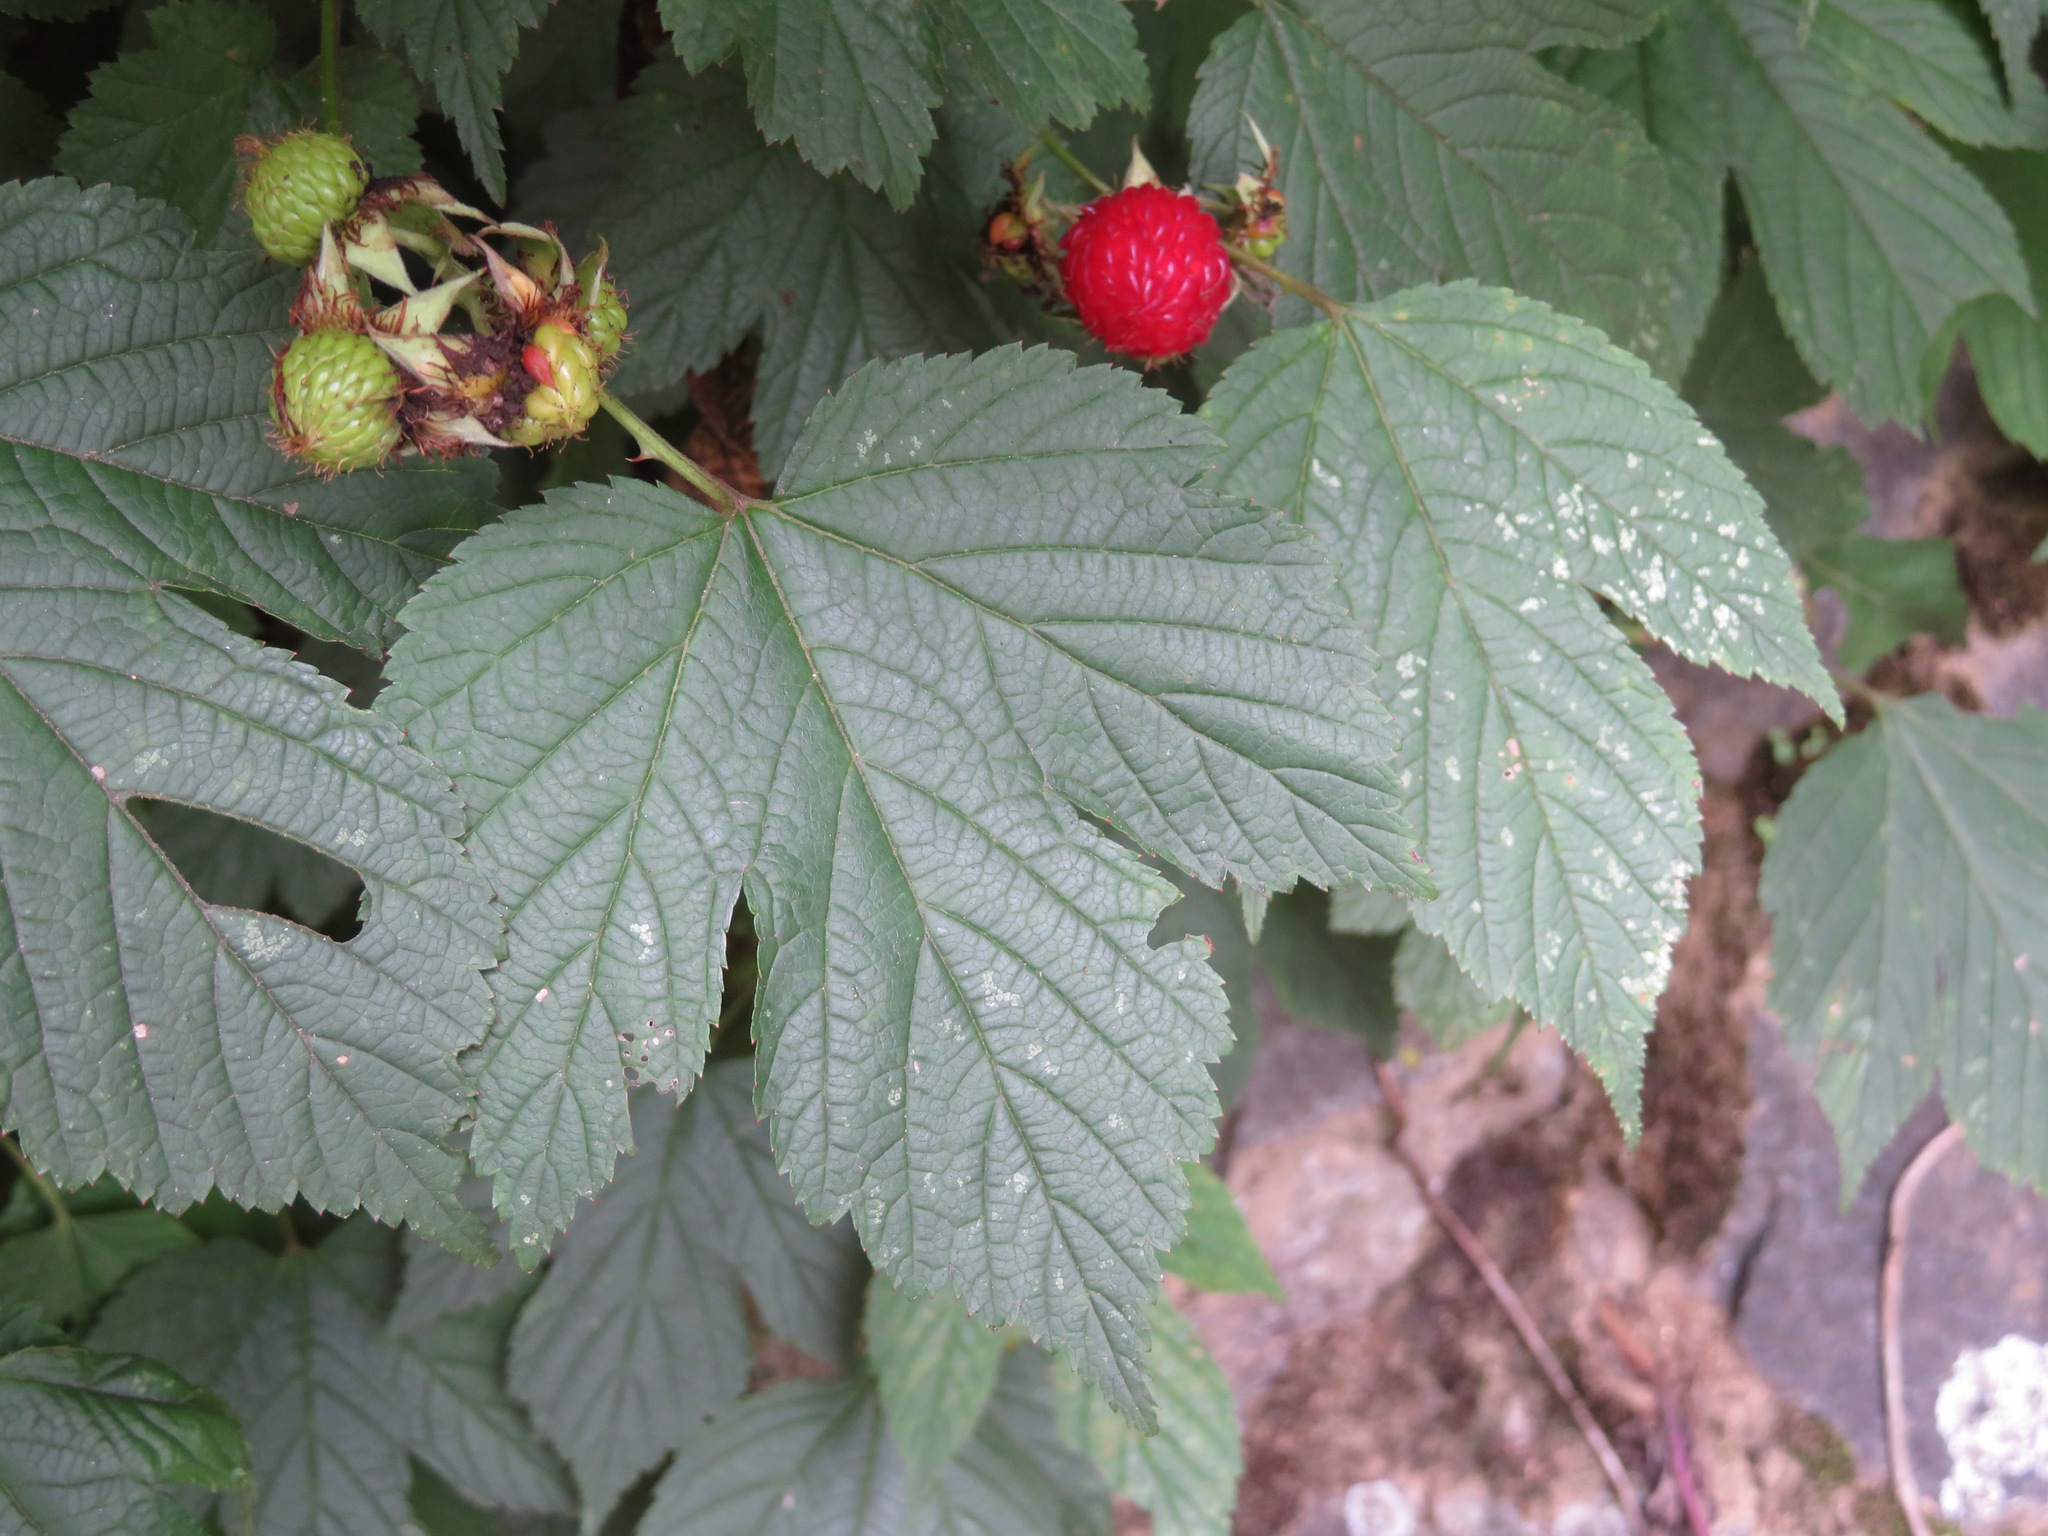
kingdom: Plantae
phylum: Tracheophyta
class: Magnoliopsida
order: Rosales
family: Rosaceae
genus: Rubus
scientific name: Rubus crataegifolius
